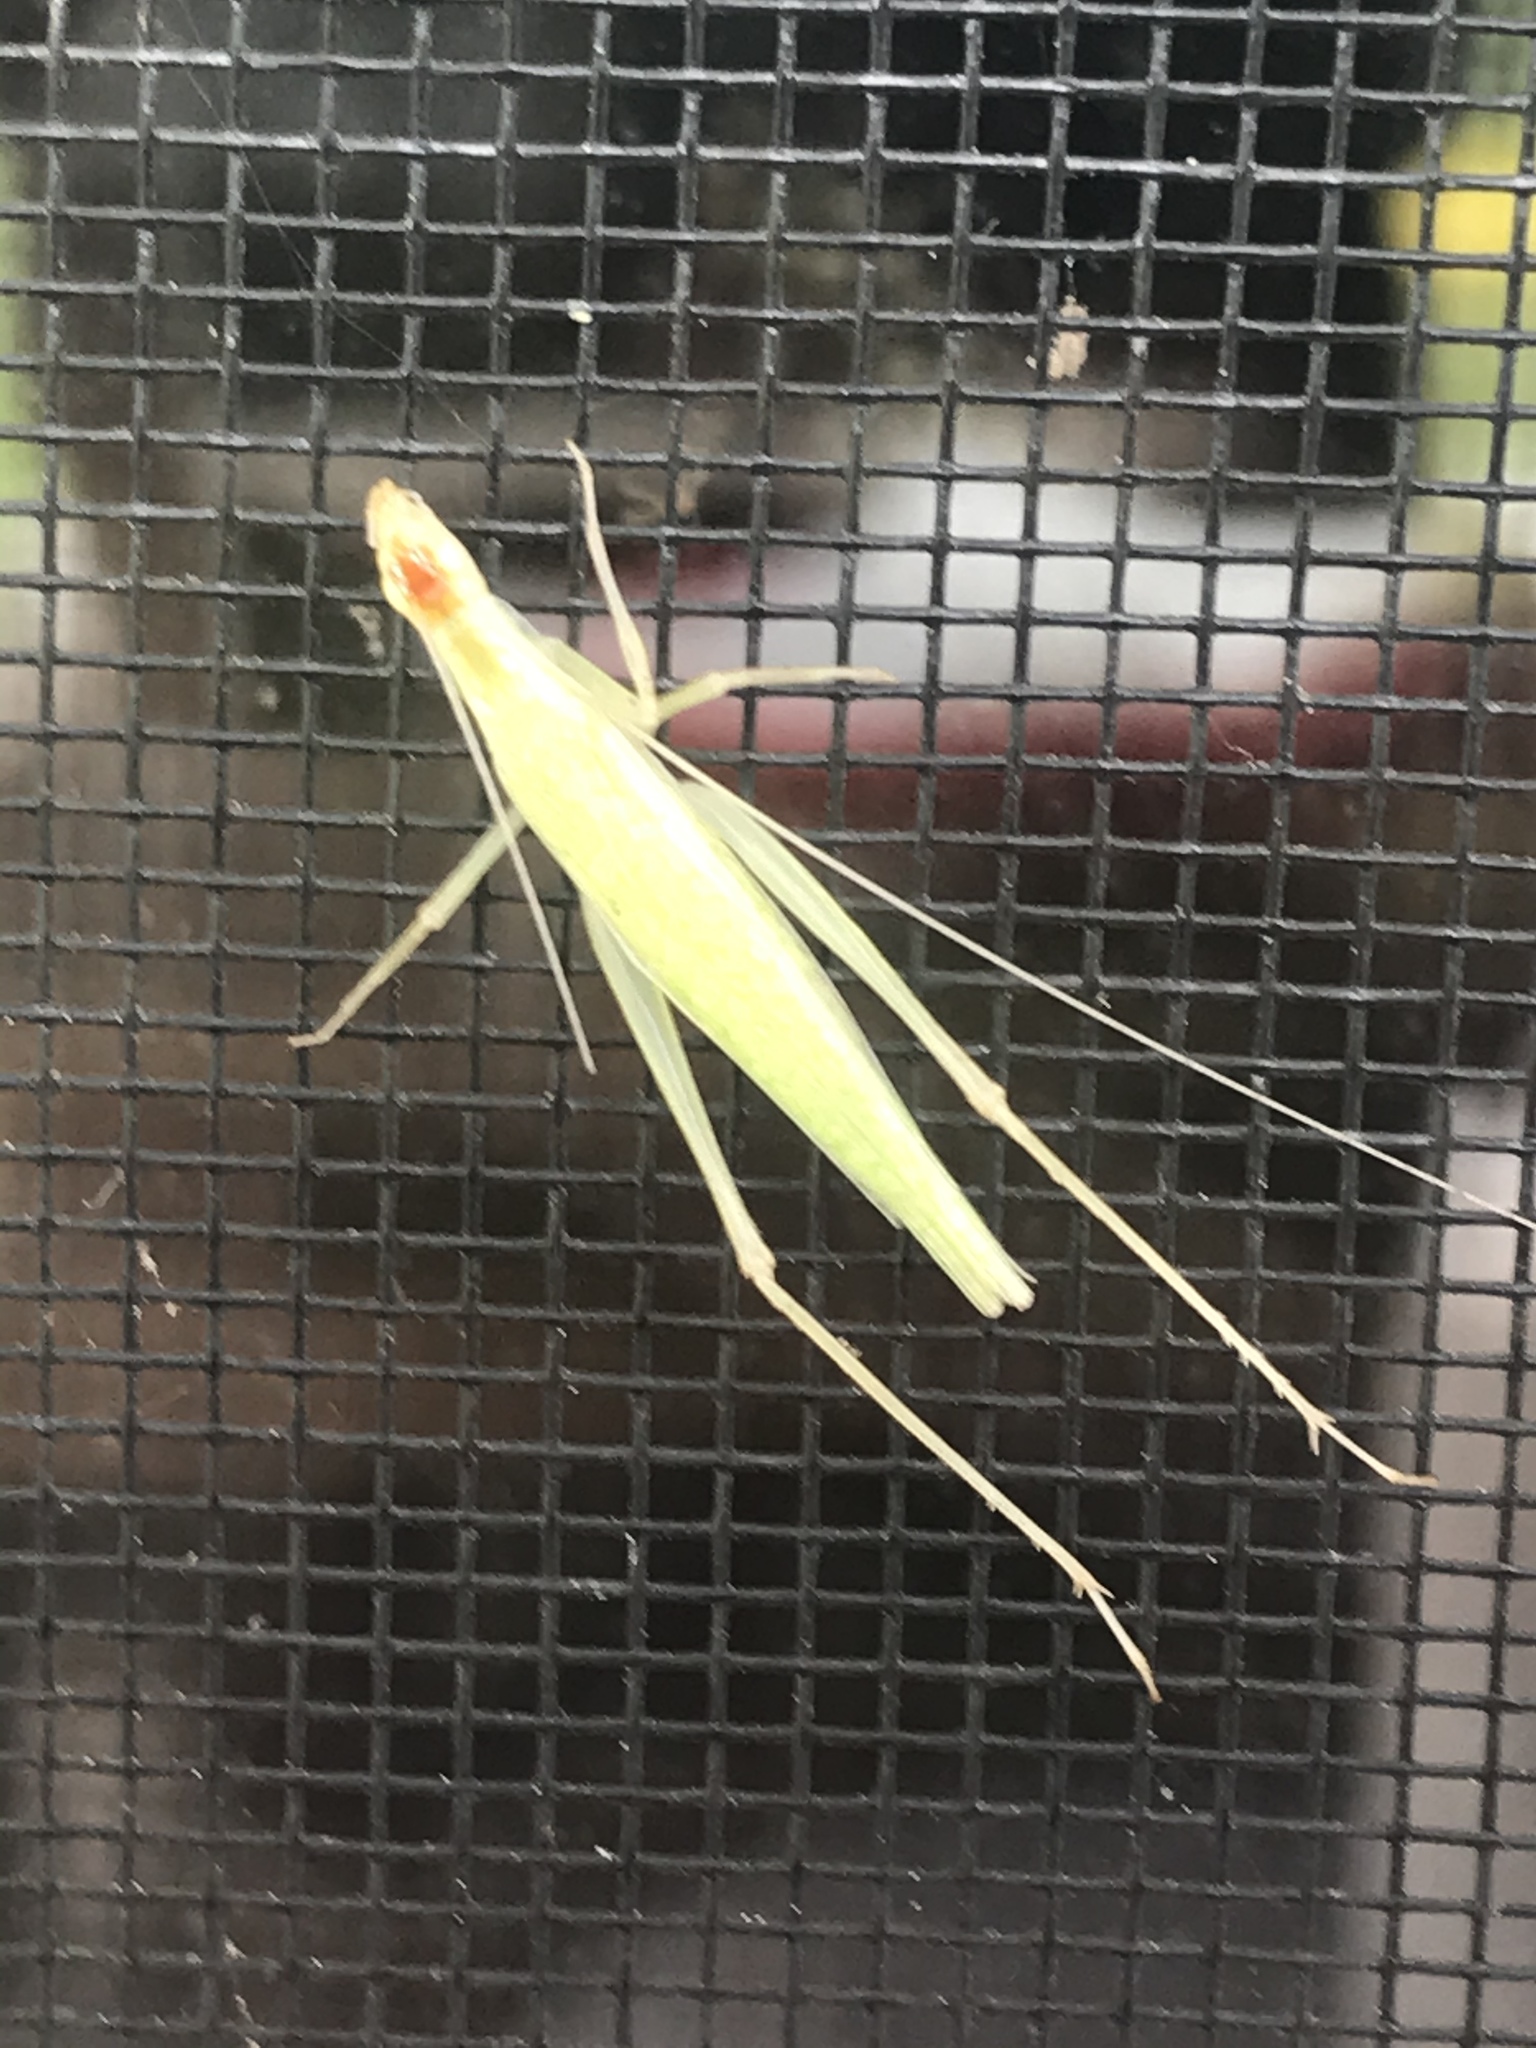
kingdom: Animalia
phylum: Arthropoda
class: Insecta
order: Orthoptera
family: Gryllidae
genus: Oecanthus
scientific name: Oecanthus niveus
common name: Narrow-winged tree cricket
